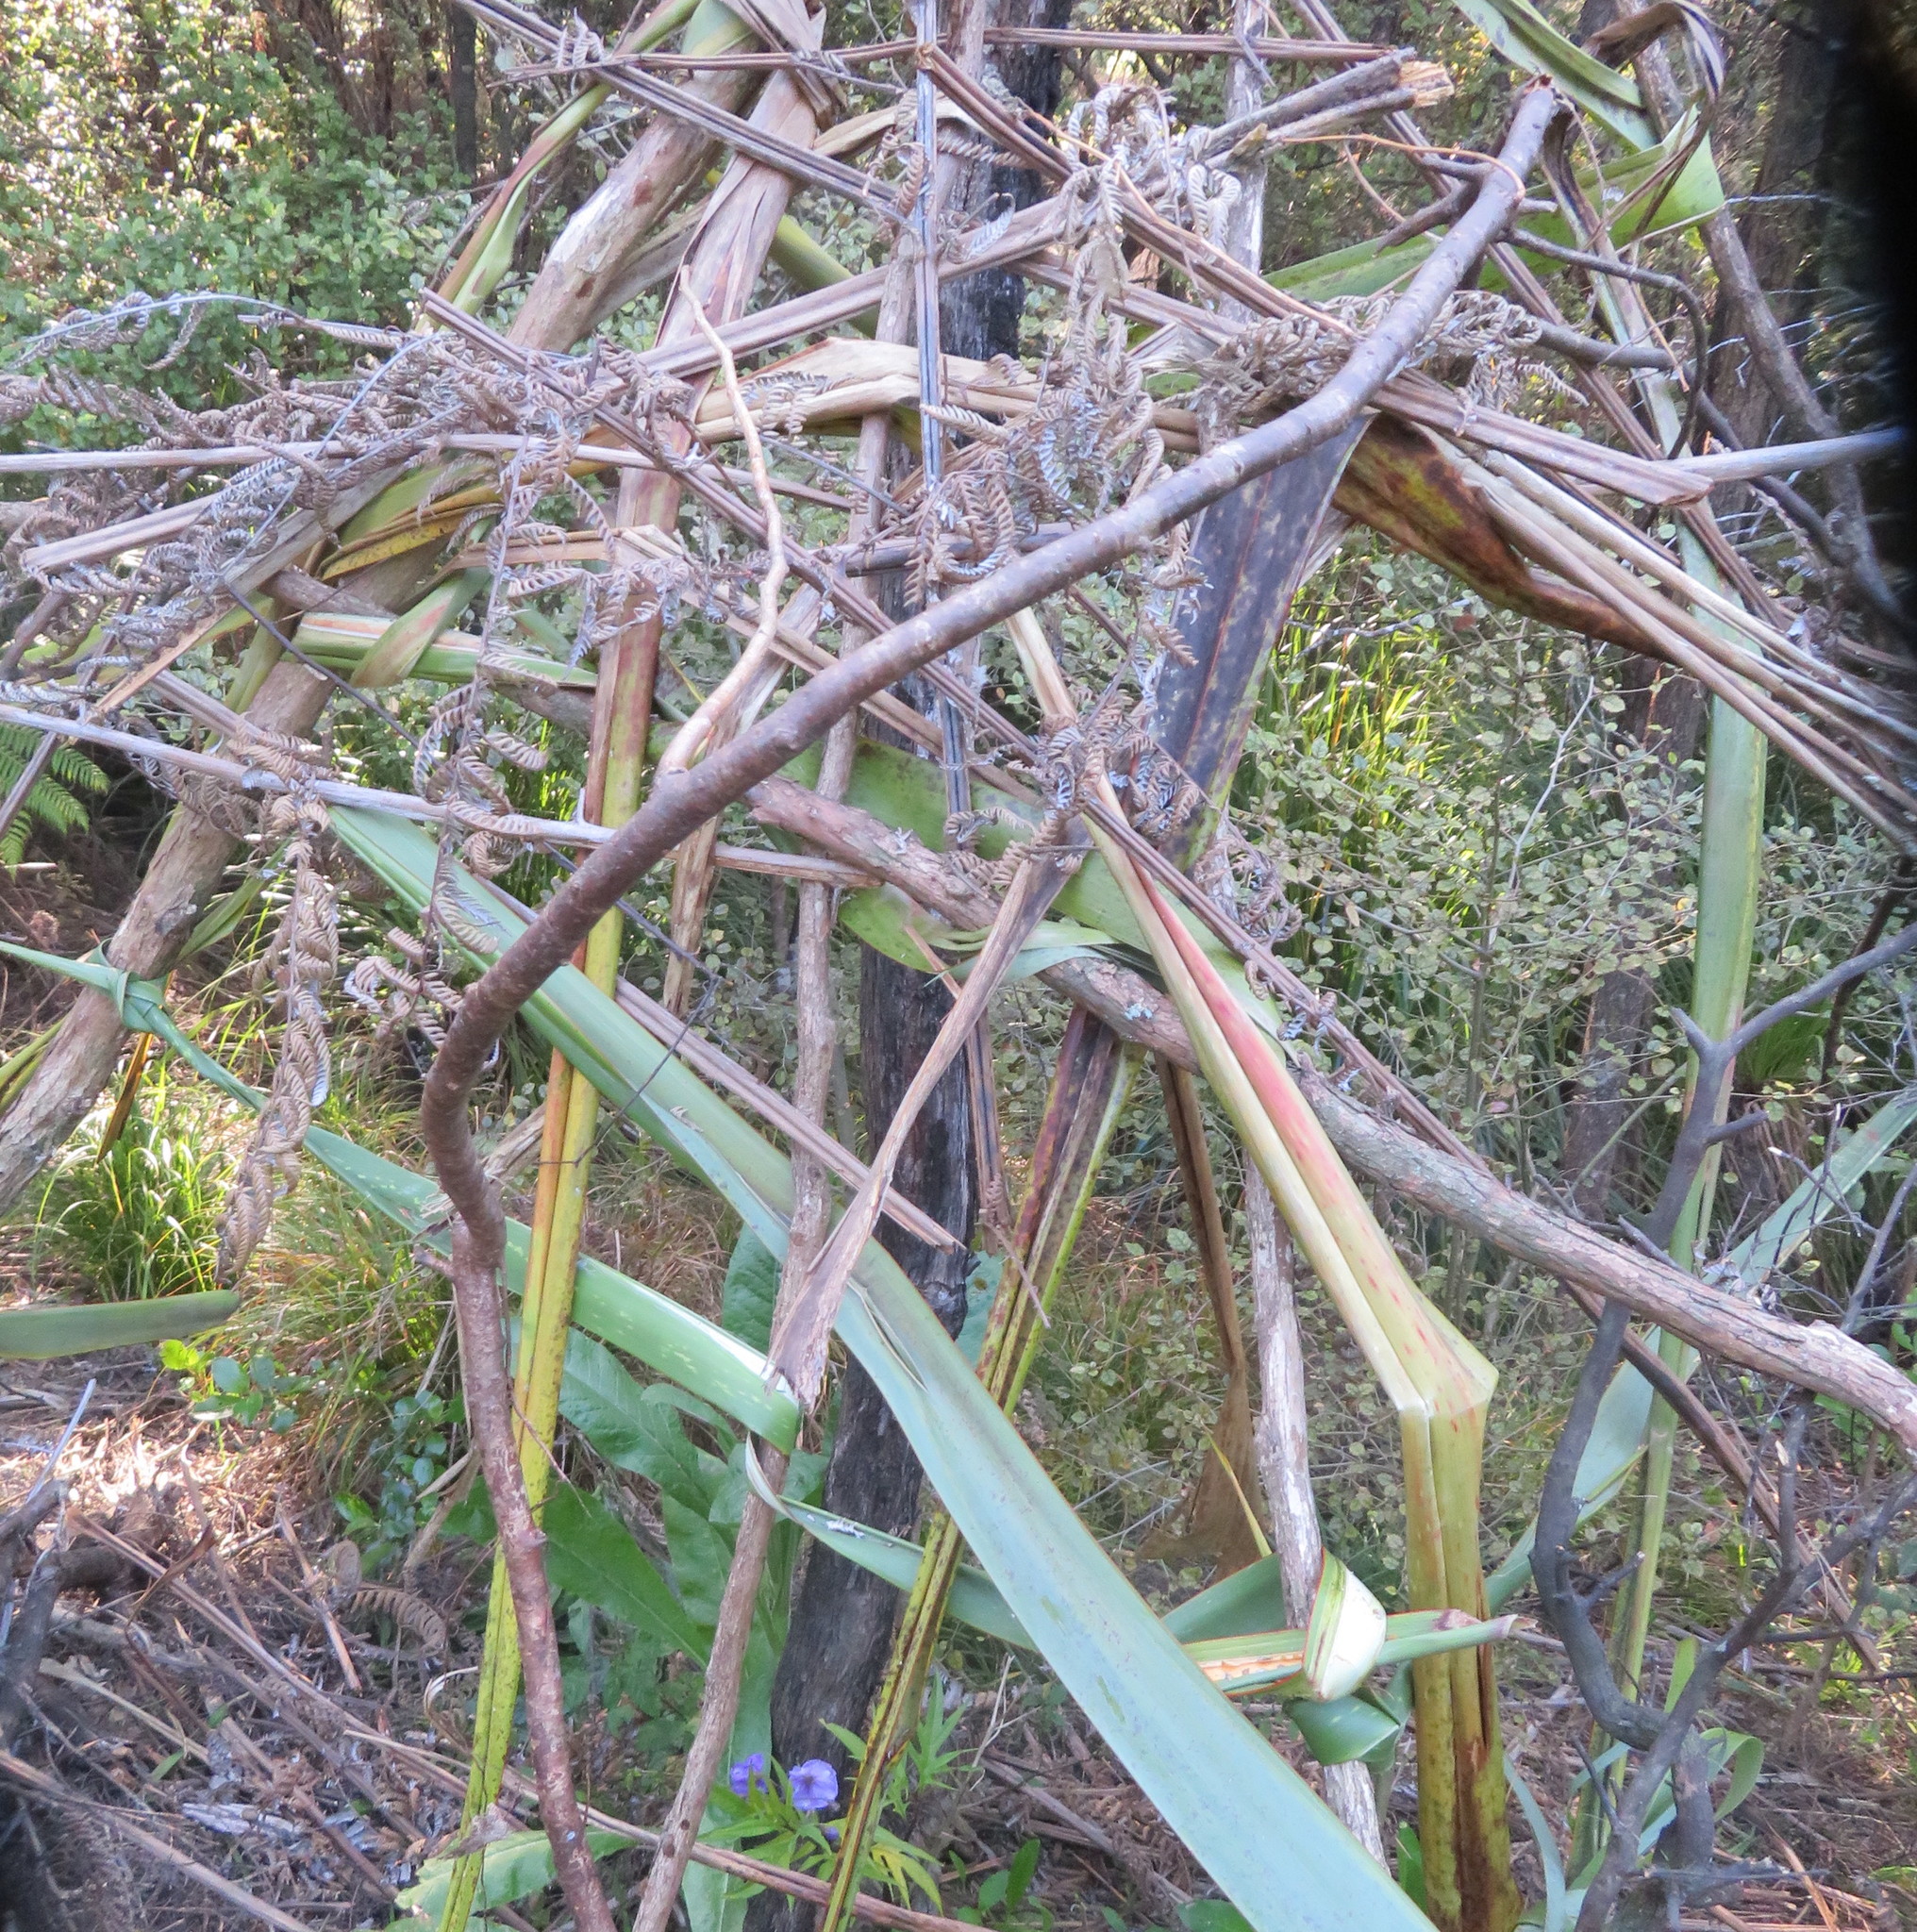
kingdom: Plantae
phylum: Tracheophyta
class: Magnoliopsida
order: Solanales
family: Solanaceae
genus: Solanum
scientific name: Solanum laciniatum
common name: Kangaroo-apple
